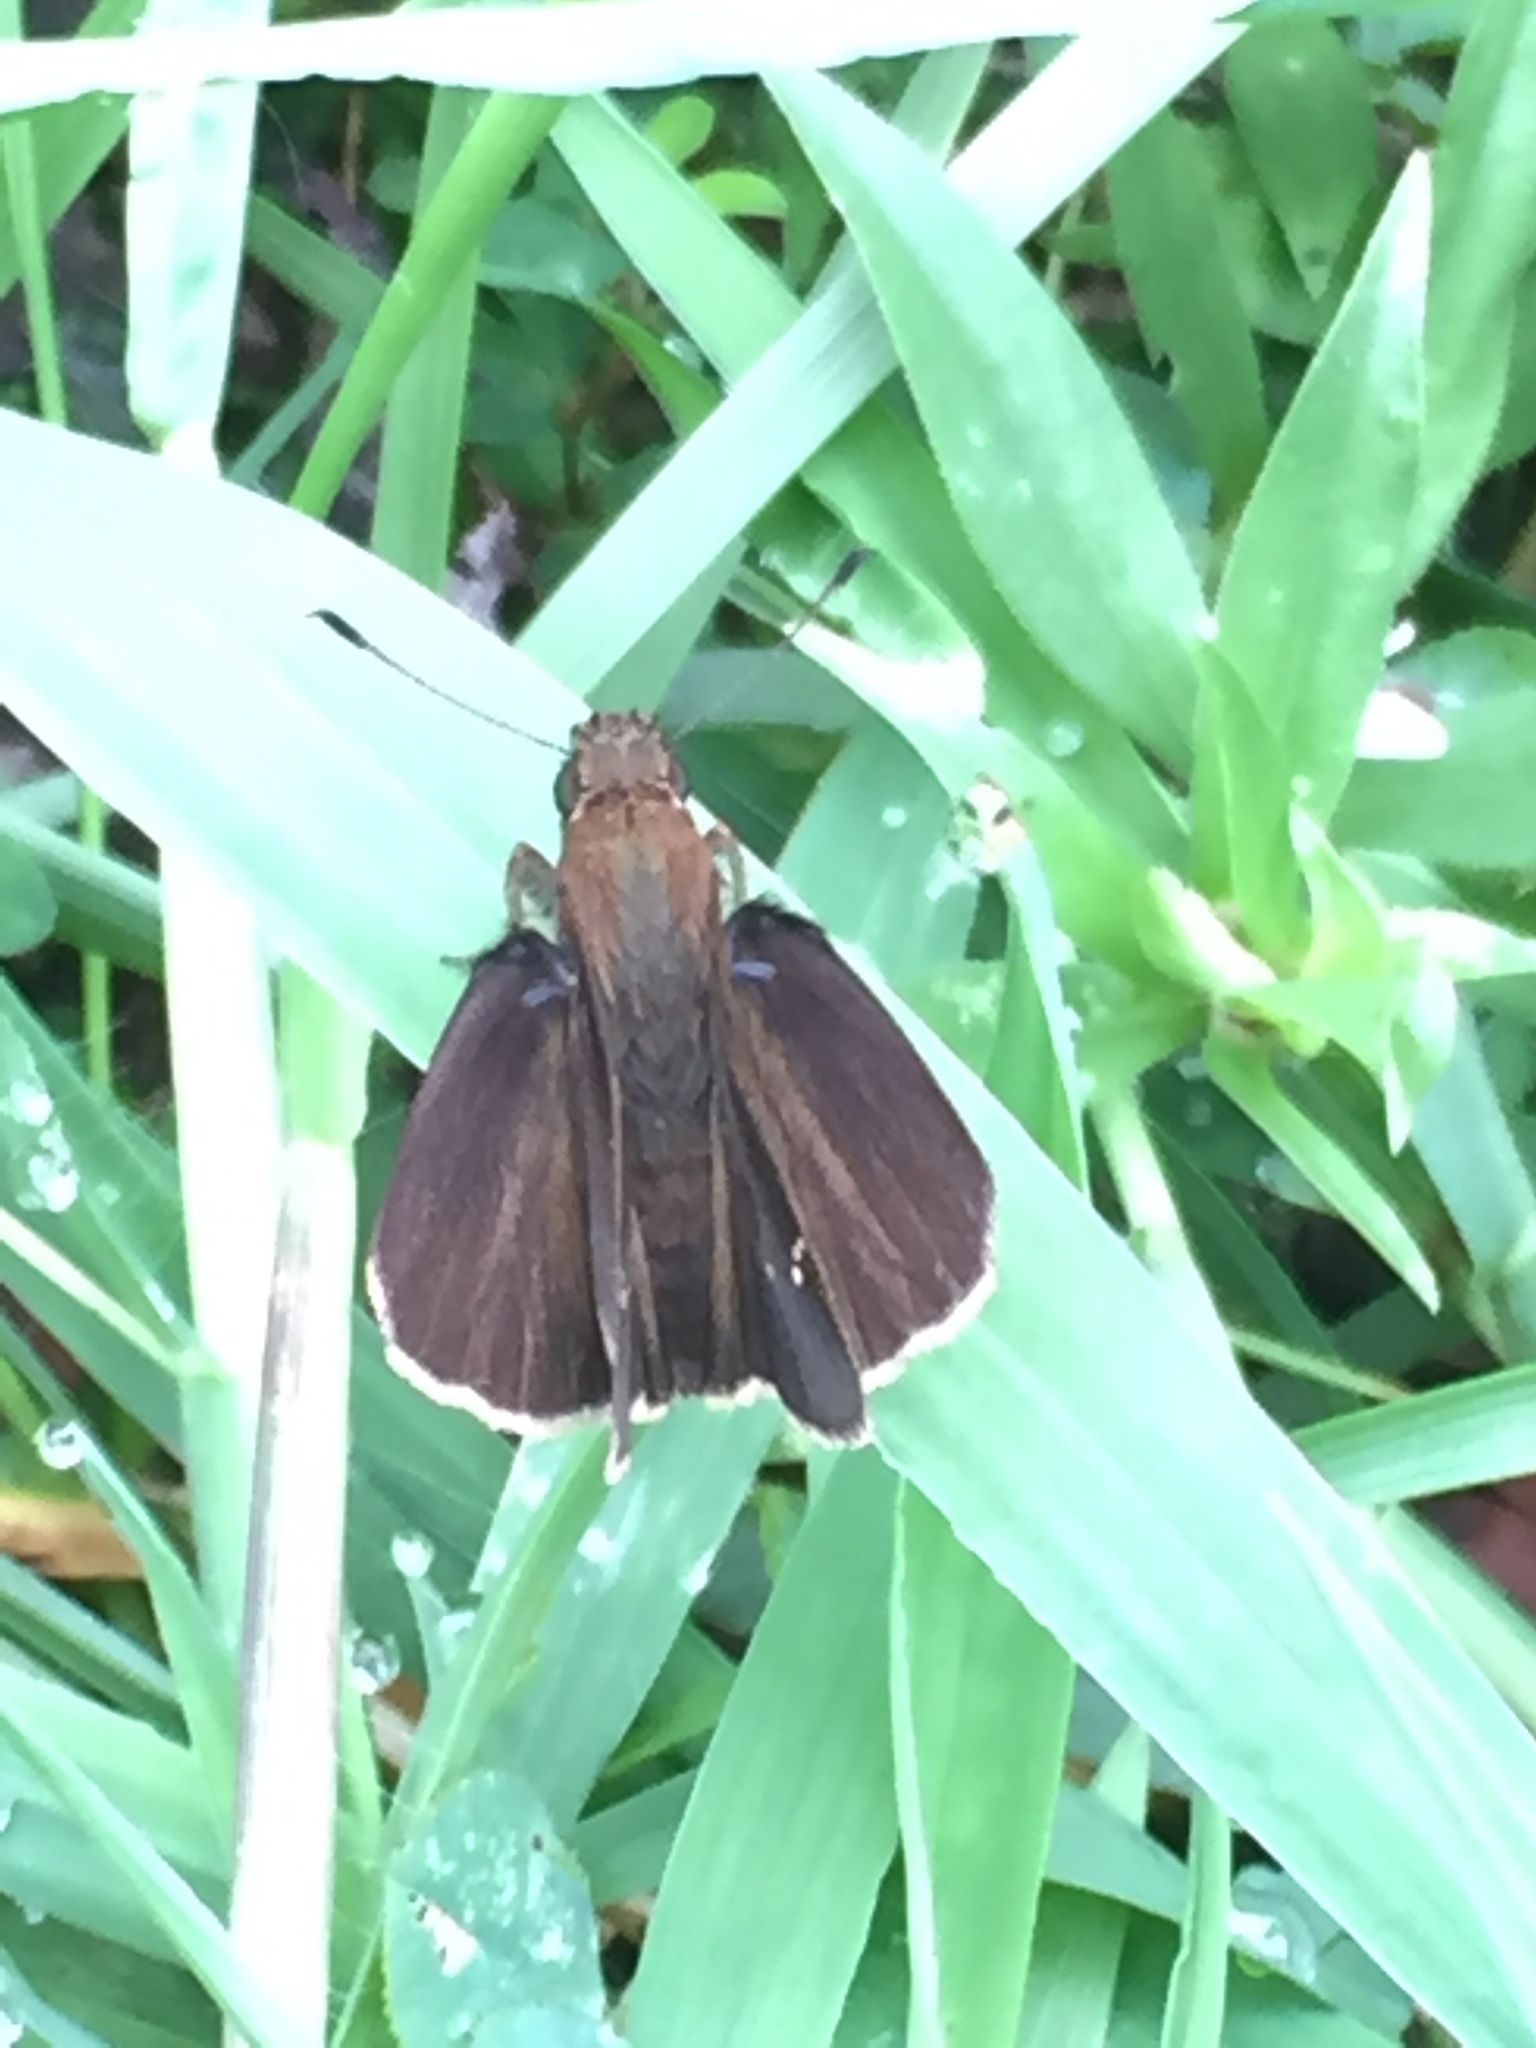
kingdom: Animalia
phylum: Arthropoda
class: Insecta
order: Lepidoptera
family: Hesperiidae
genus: Lerema
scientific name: Lerema accius
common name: Clouded skipper
